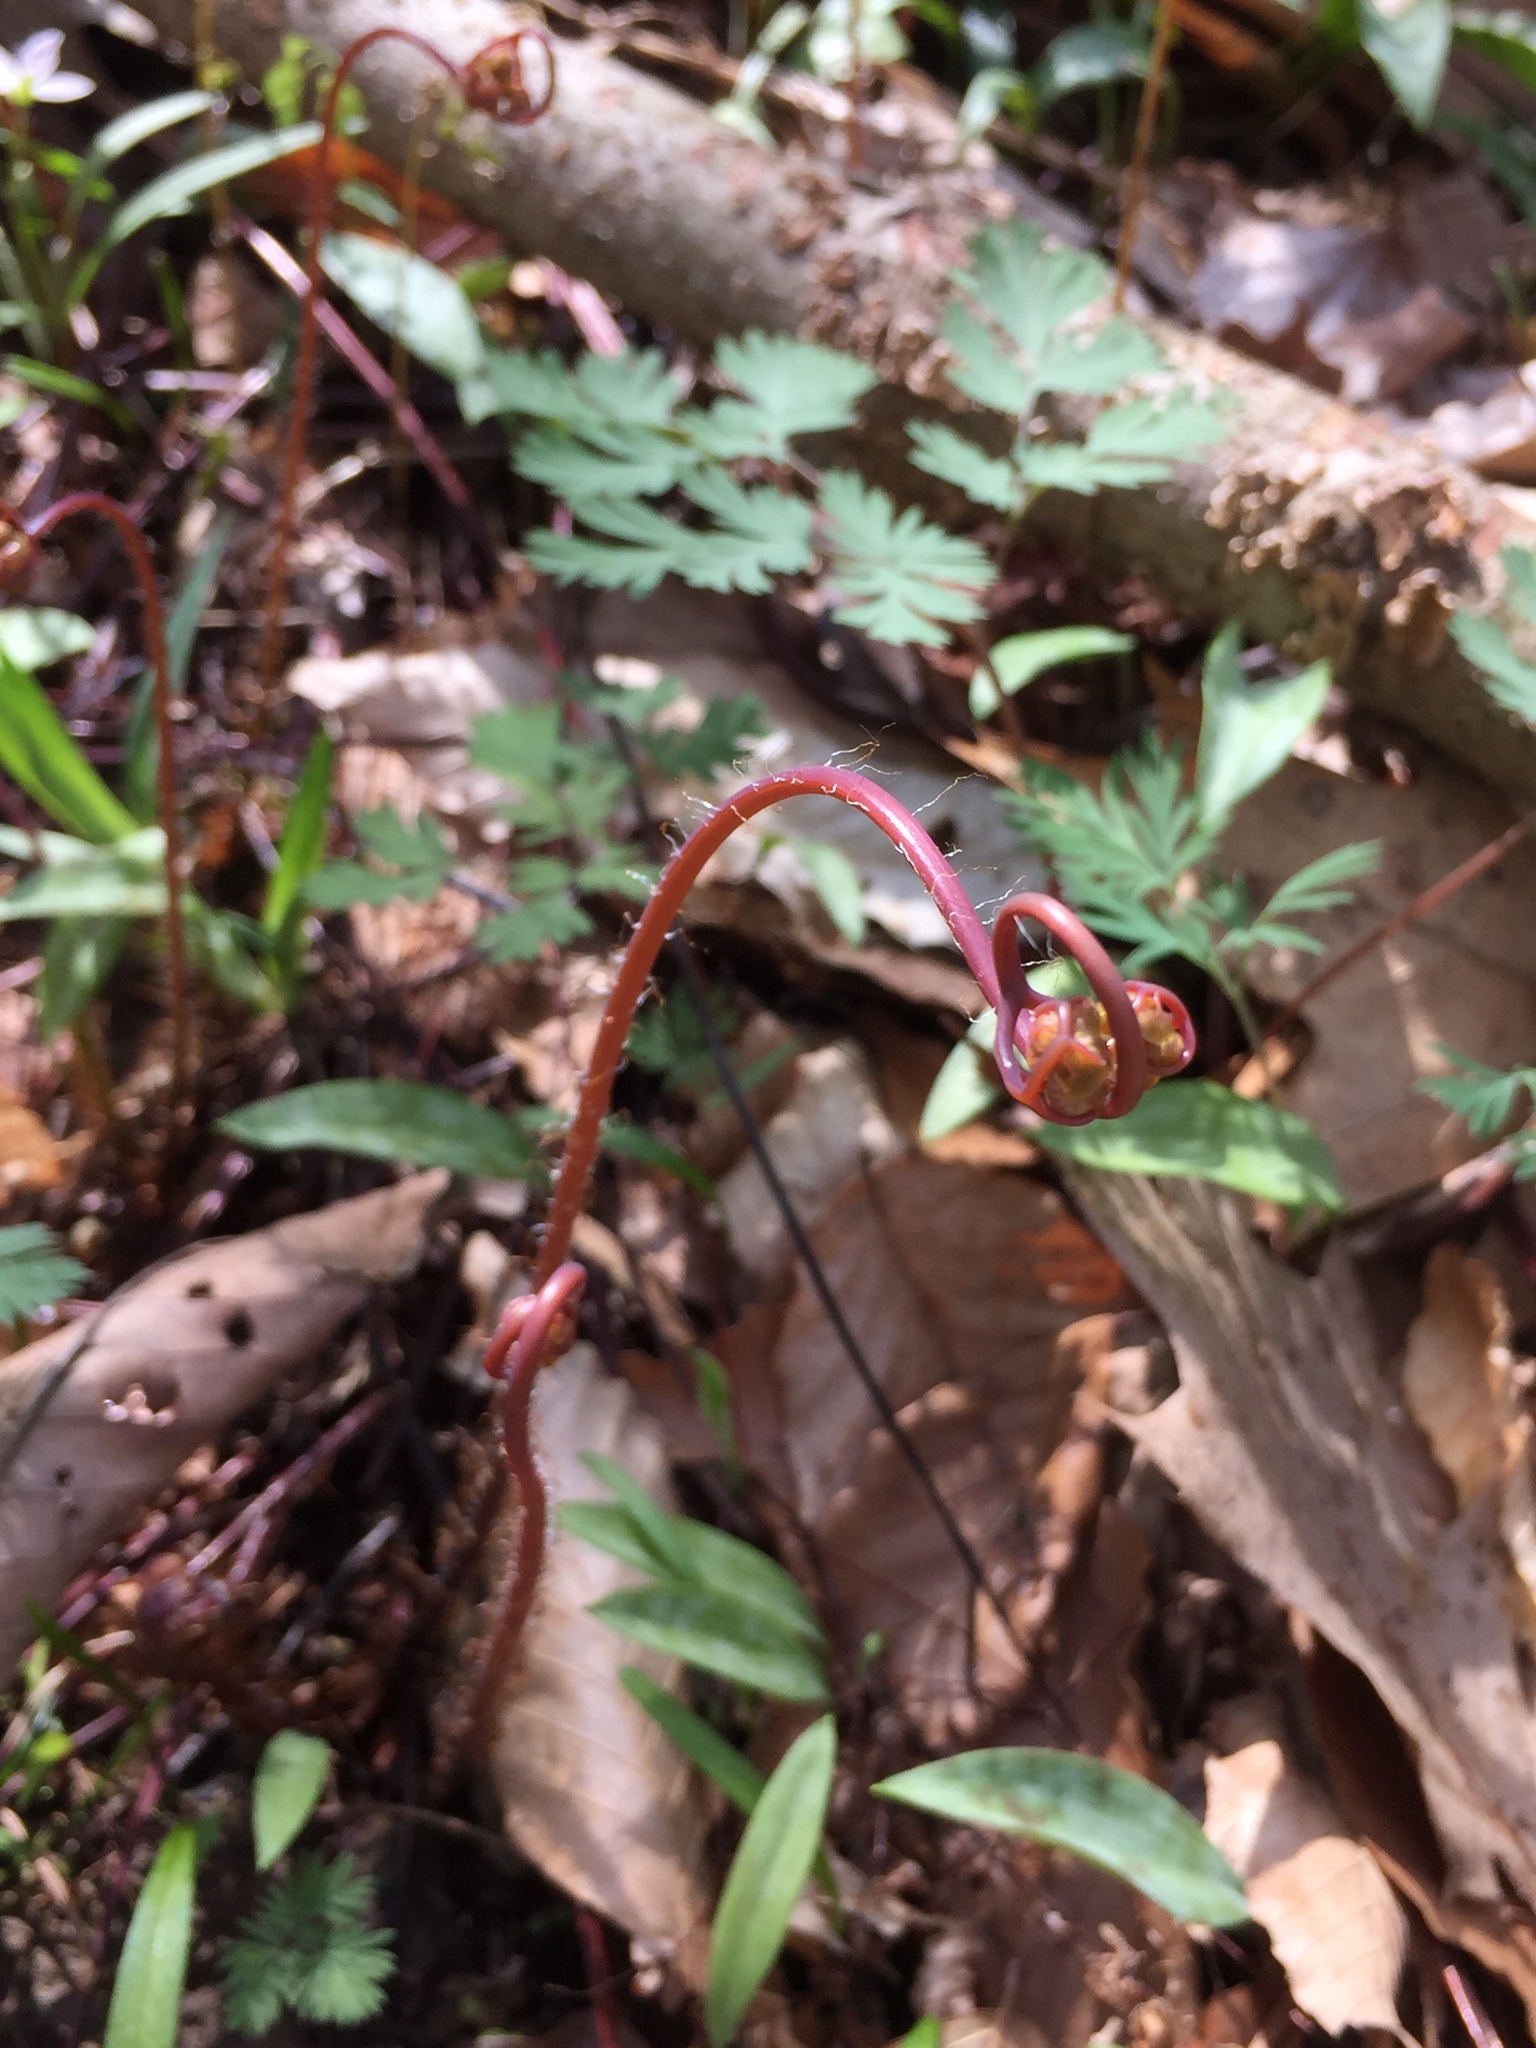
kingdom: Plantae
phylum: Tracheophyta
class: Polypodiopsida
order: Polypodiales
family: Pteridaceae
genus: Adiantum
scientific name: Adiantum pedatum
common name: Five-finger fern
